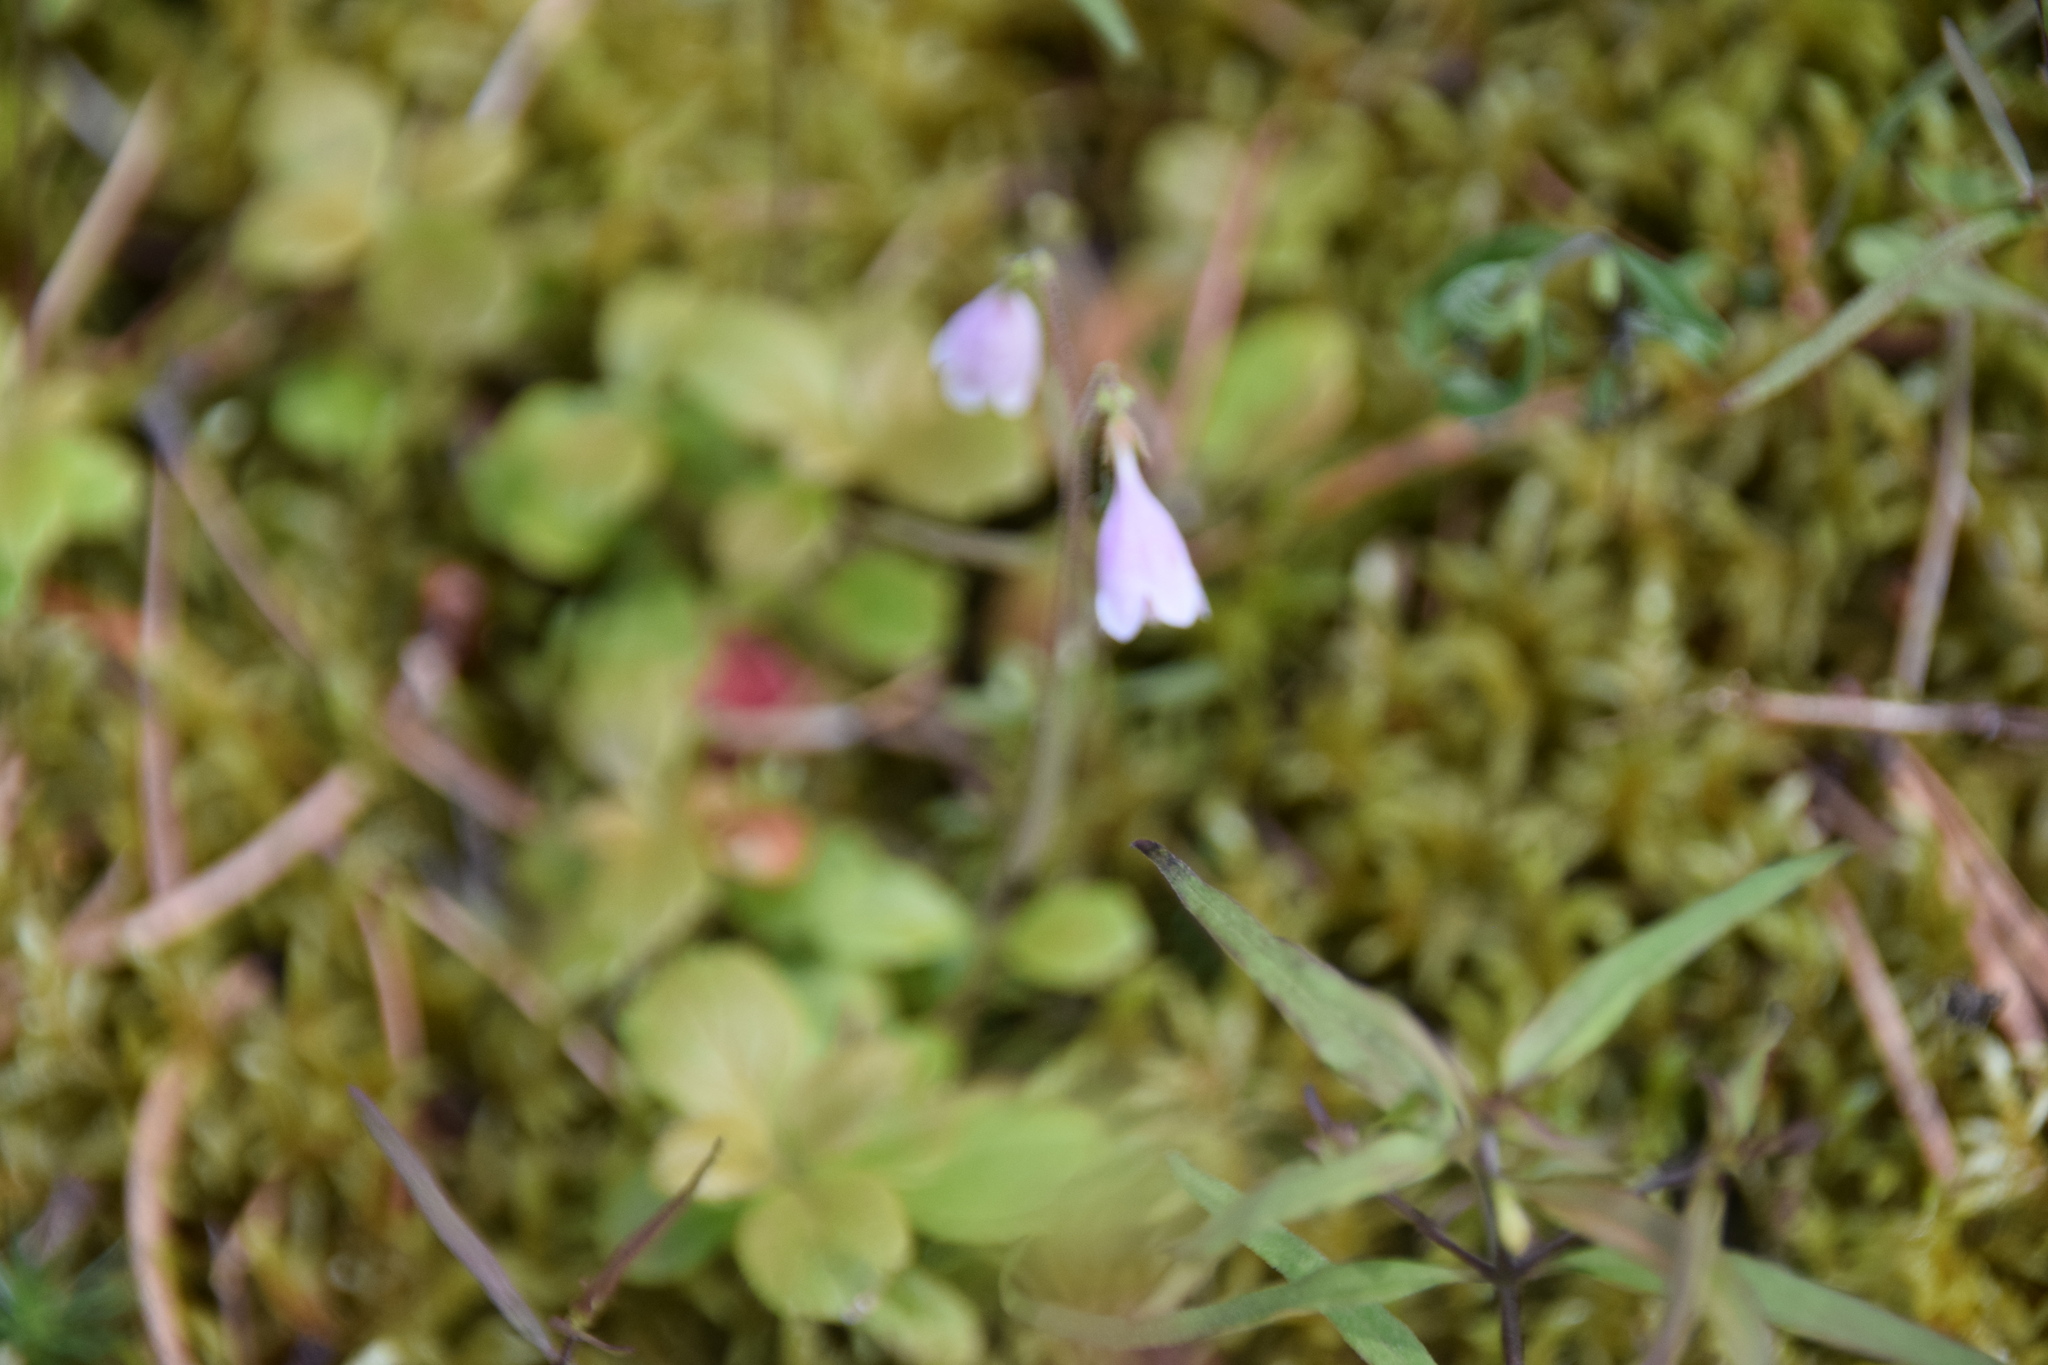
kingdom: Plantae
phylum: Tracheophyta
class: Magnoliopsida
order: Dipsacales
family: Caprifoliaceae
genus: Linnaea
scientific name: Linnaea borealis
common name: Twinflower
